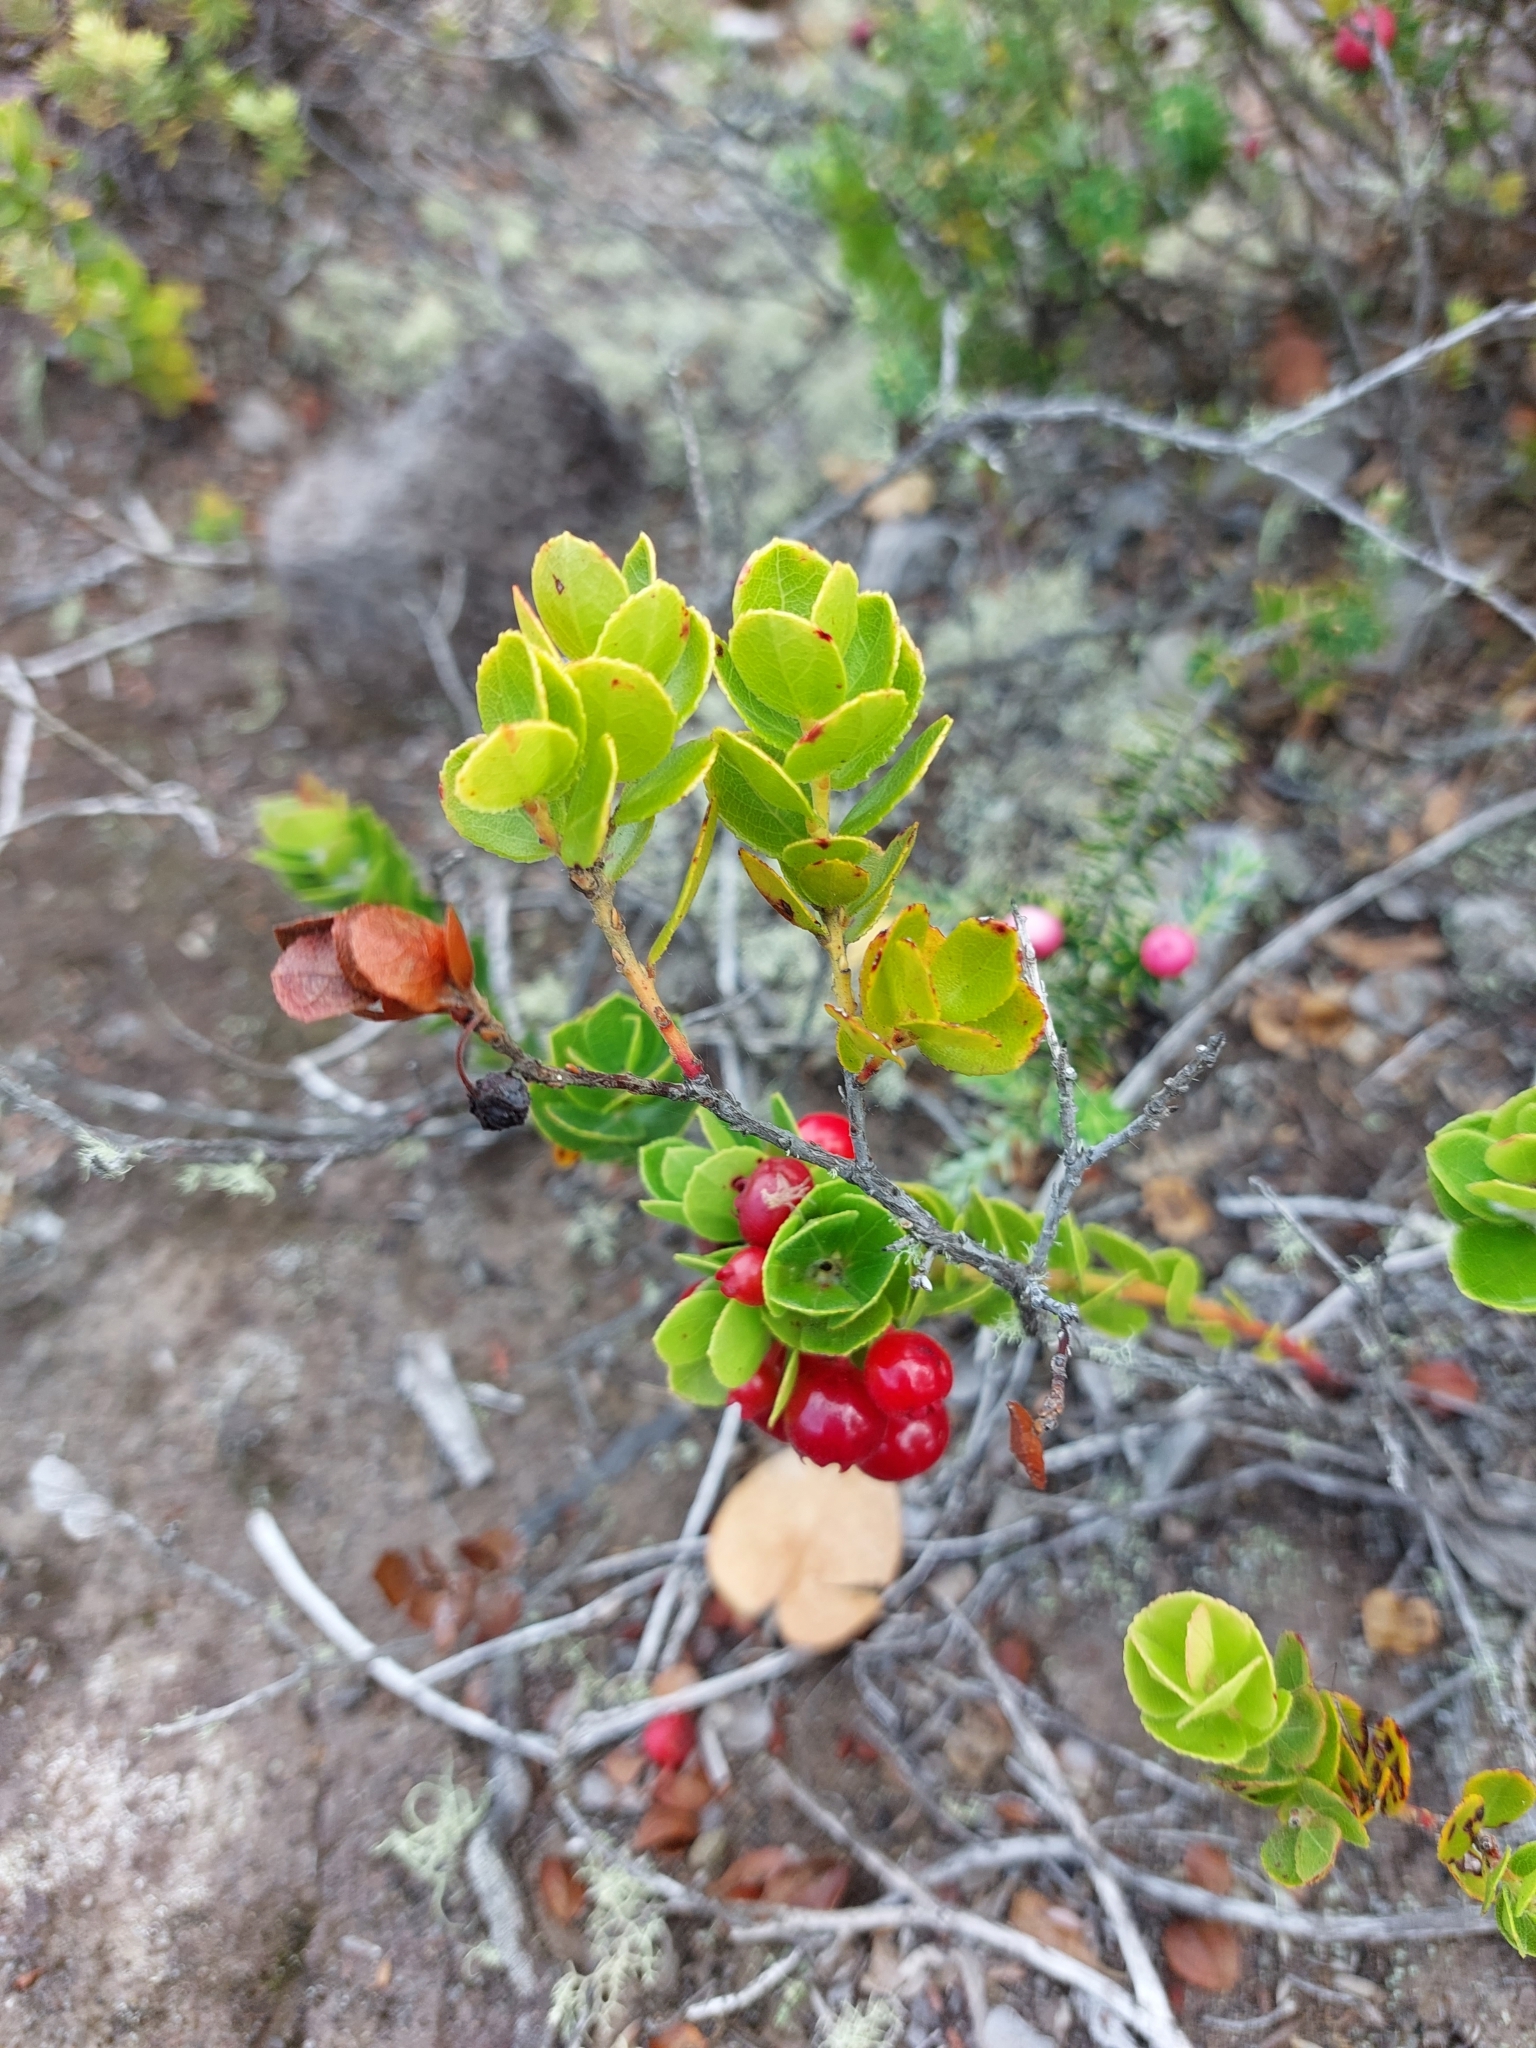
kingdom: Plantae
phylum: Tracheophyta
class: Magnoliopsida
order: Ericales
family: Ericaceae
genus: Vaccinium
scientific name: Vaccinium reticulatum
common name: Ohelo
